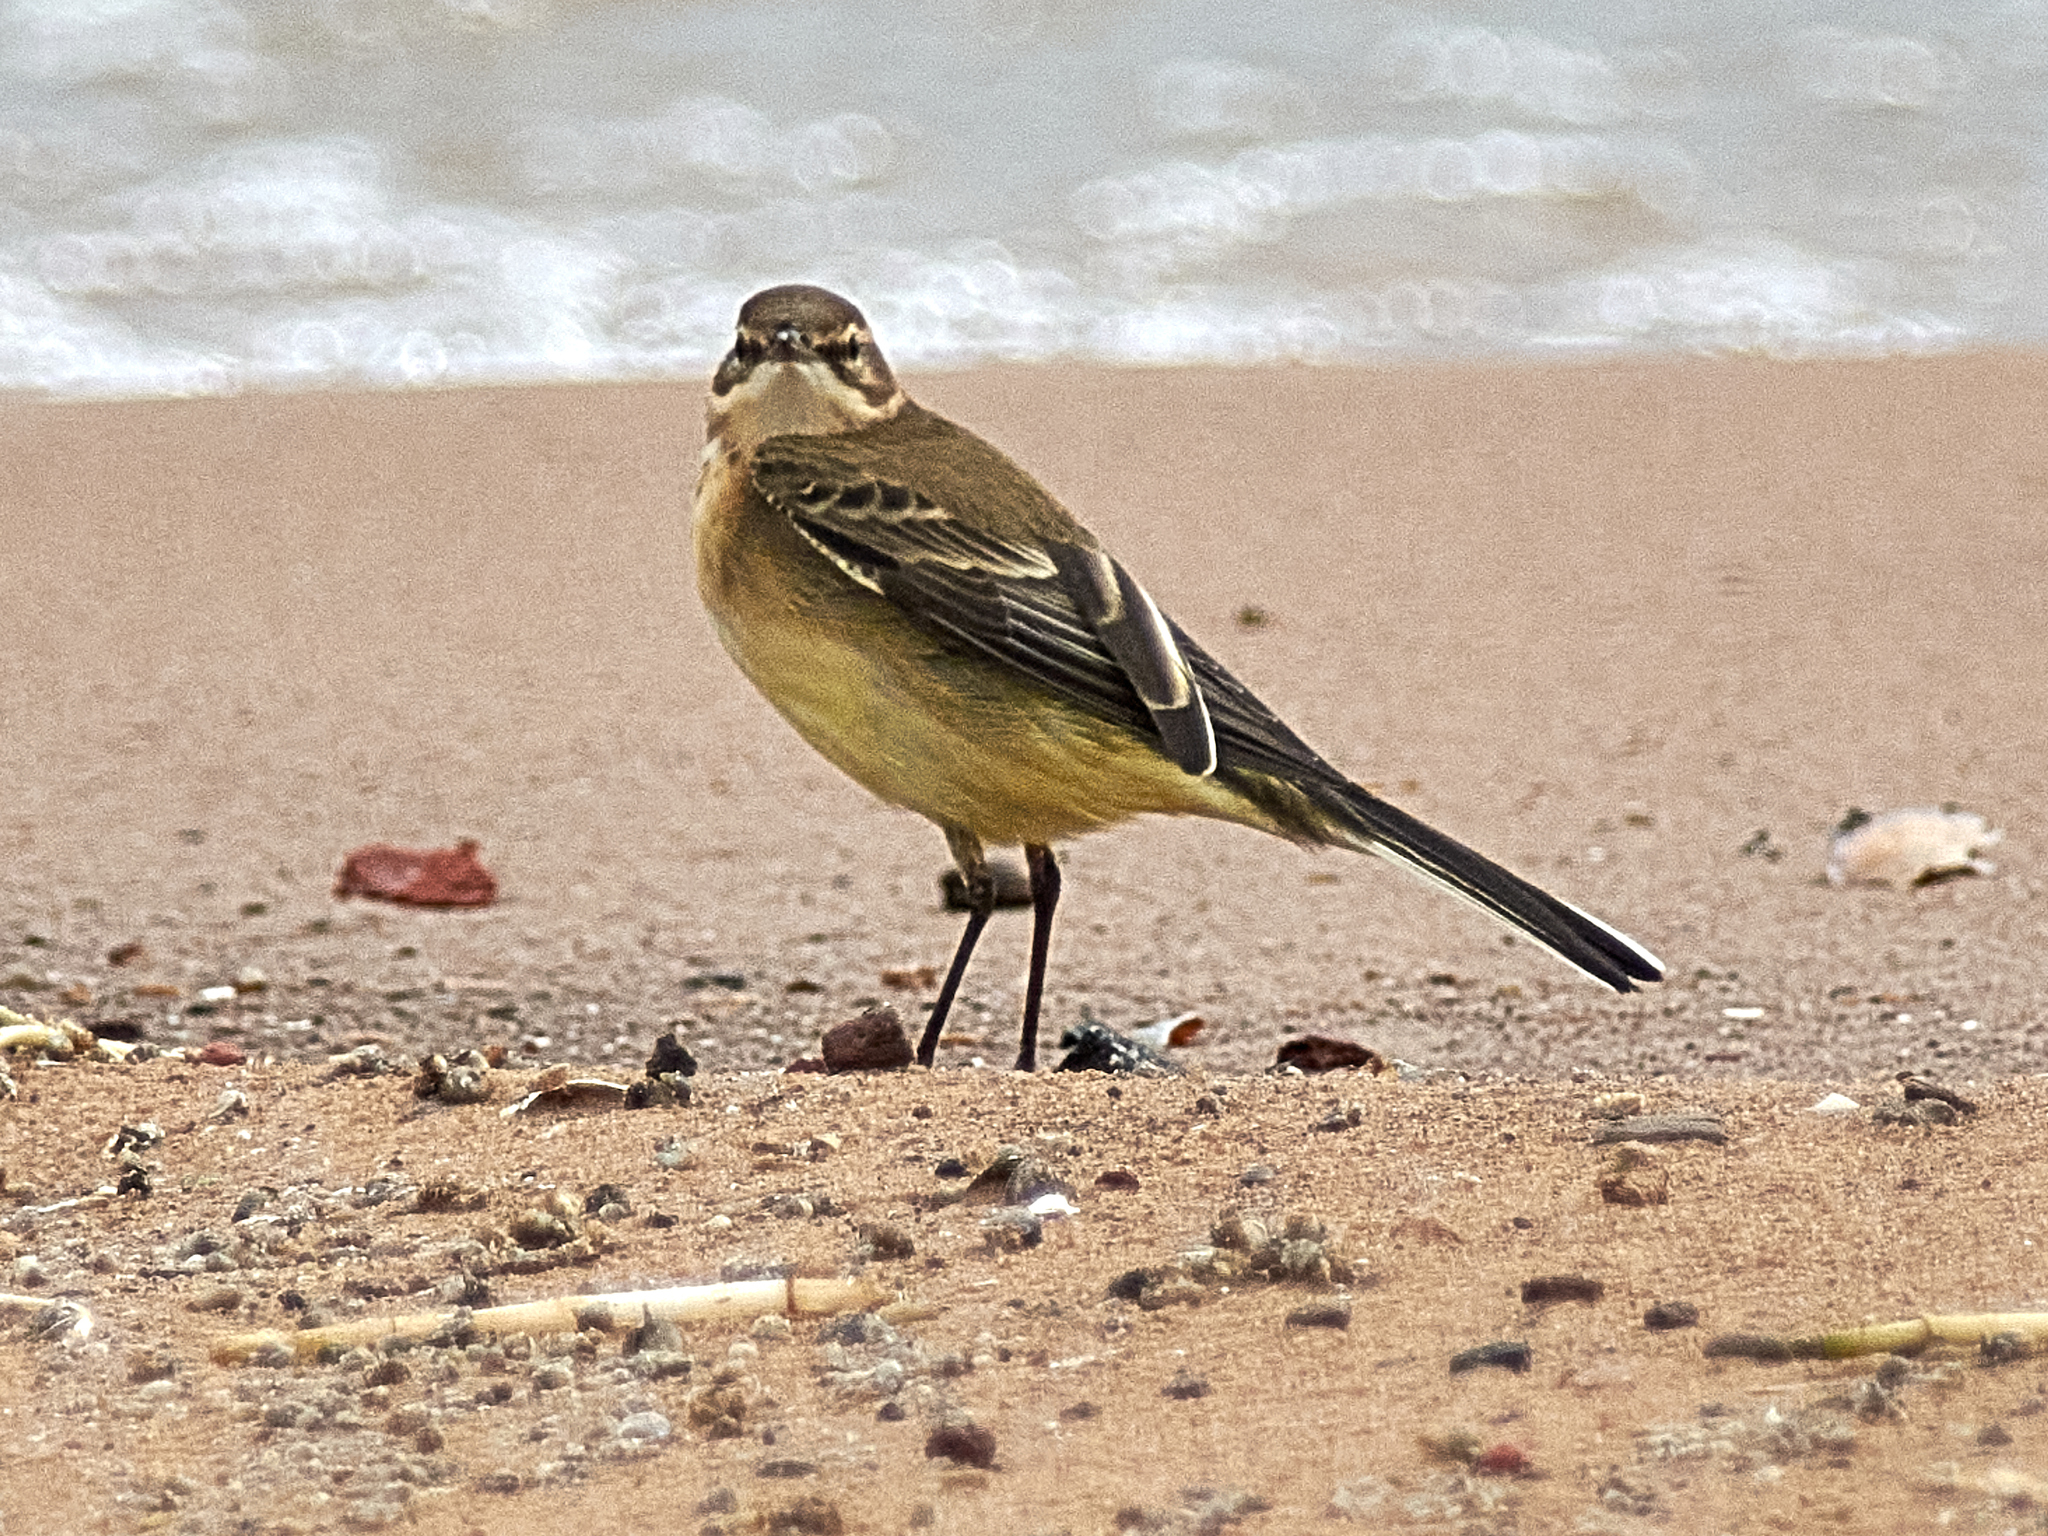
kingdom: Animalia
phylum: Chordata
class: Aves
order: Passeriformes
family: Motacillidae
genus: Motacilla
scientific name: Motacilla flava
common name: Western yellow wagtail
